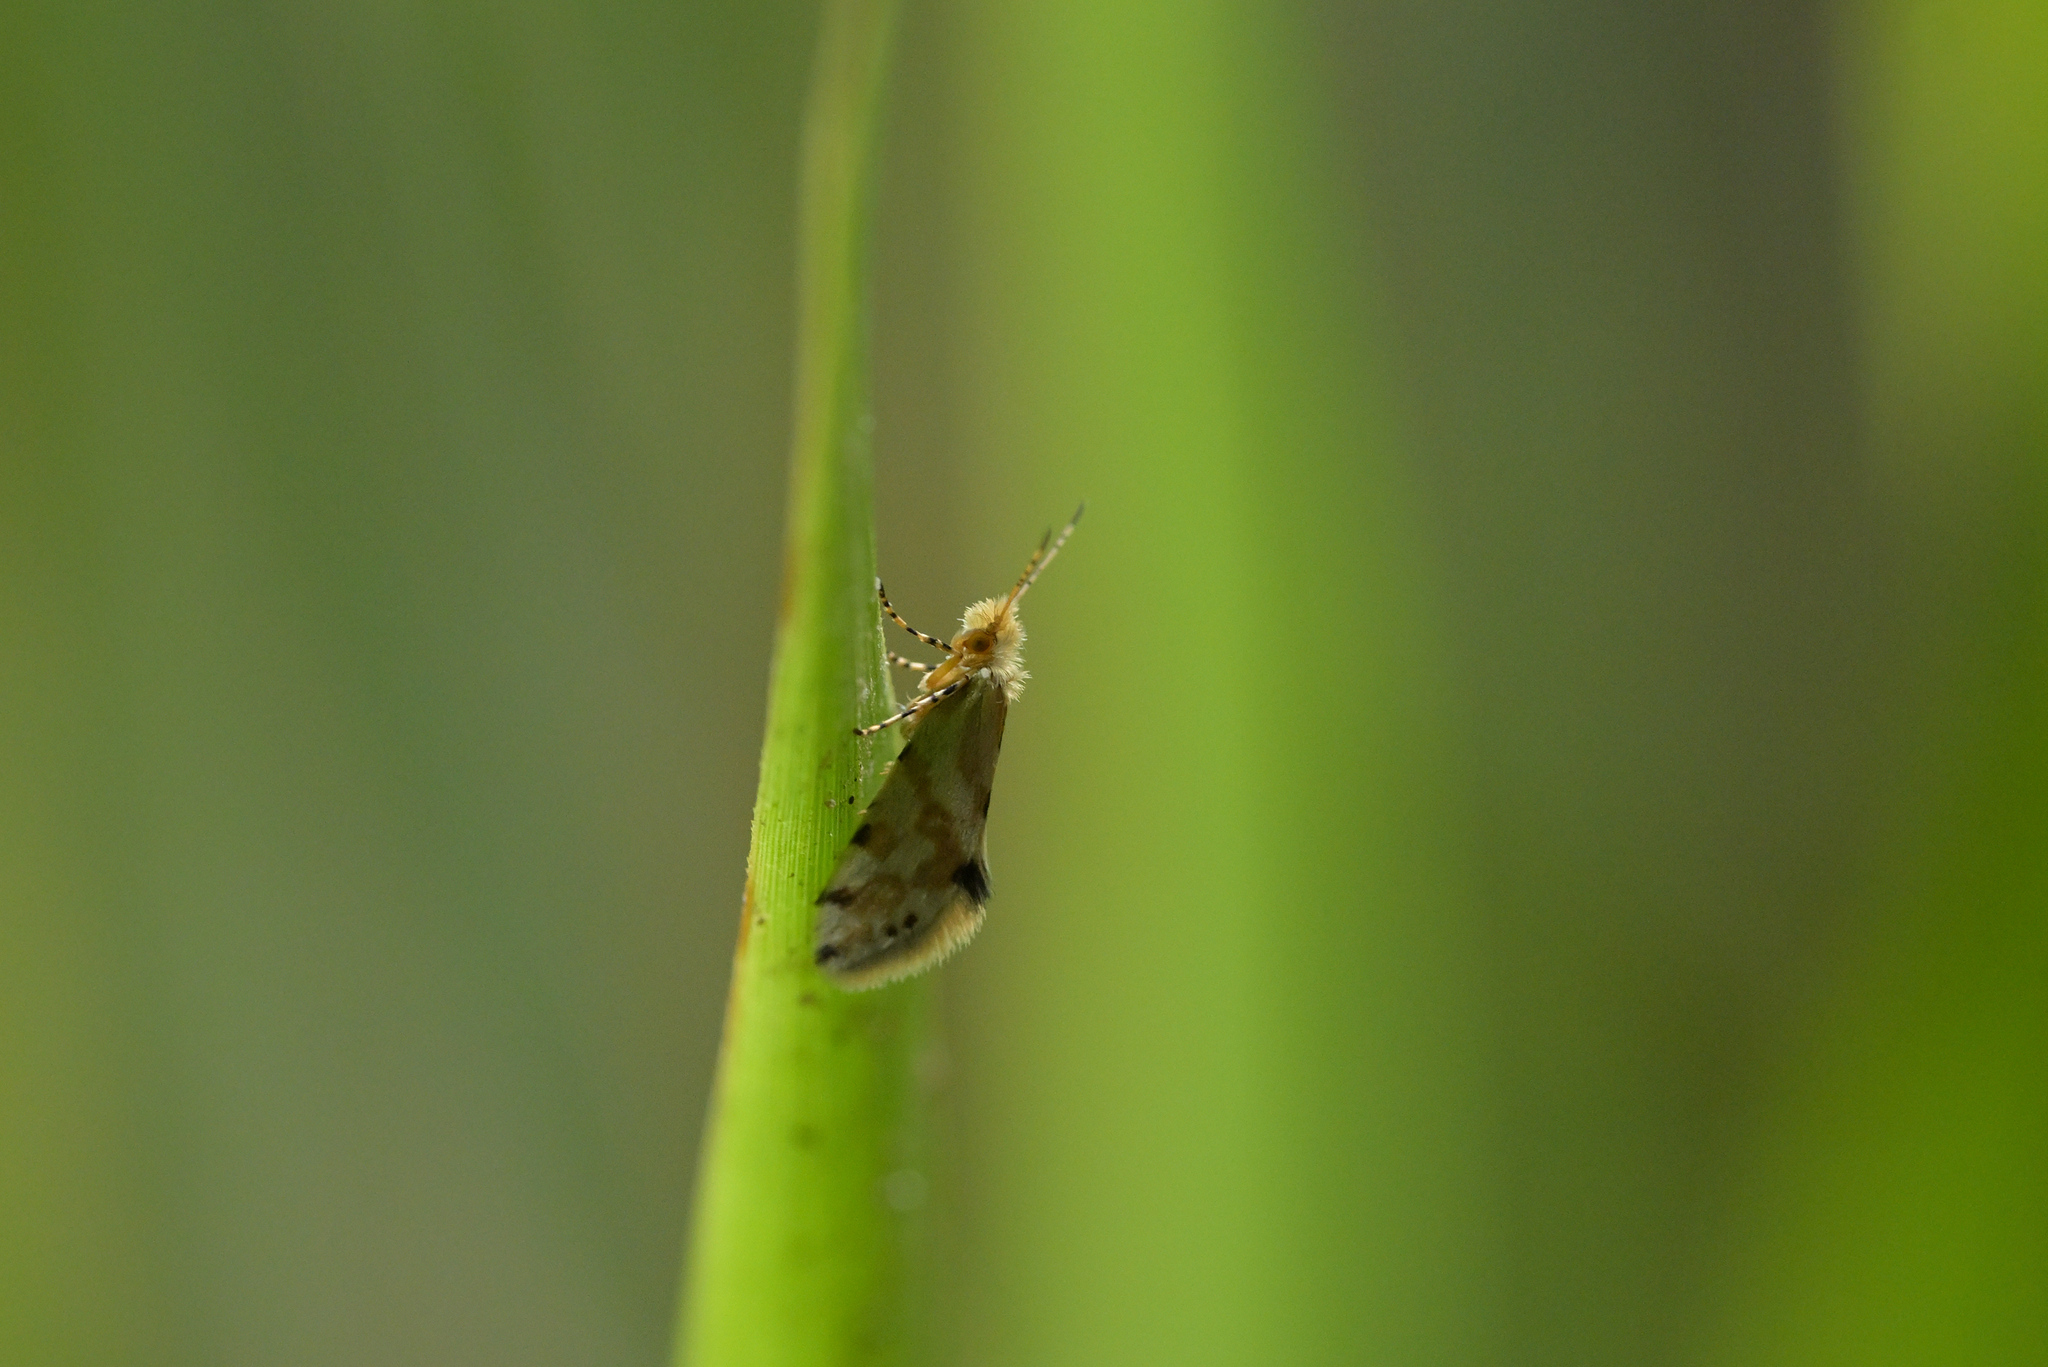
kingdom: Animalia
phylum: Arthropoda
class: Insecta
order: Lepidoptera
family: Micropterigidae
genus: Sabatinca
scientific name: Sabatinca chalcophanes
